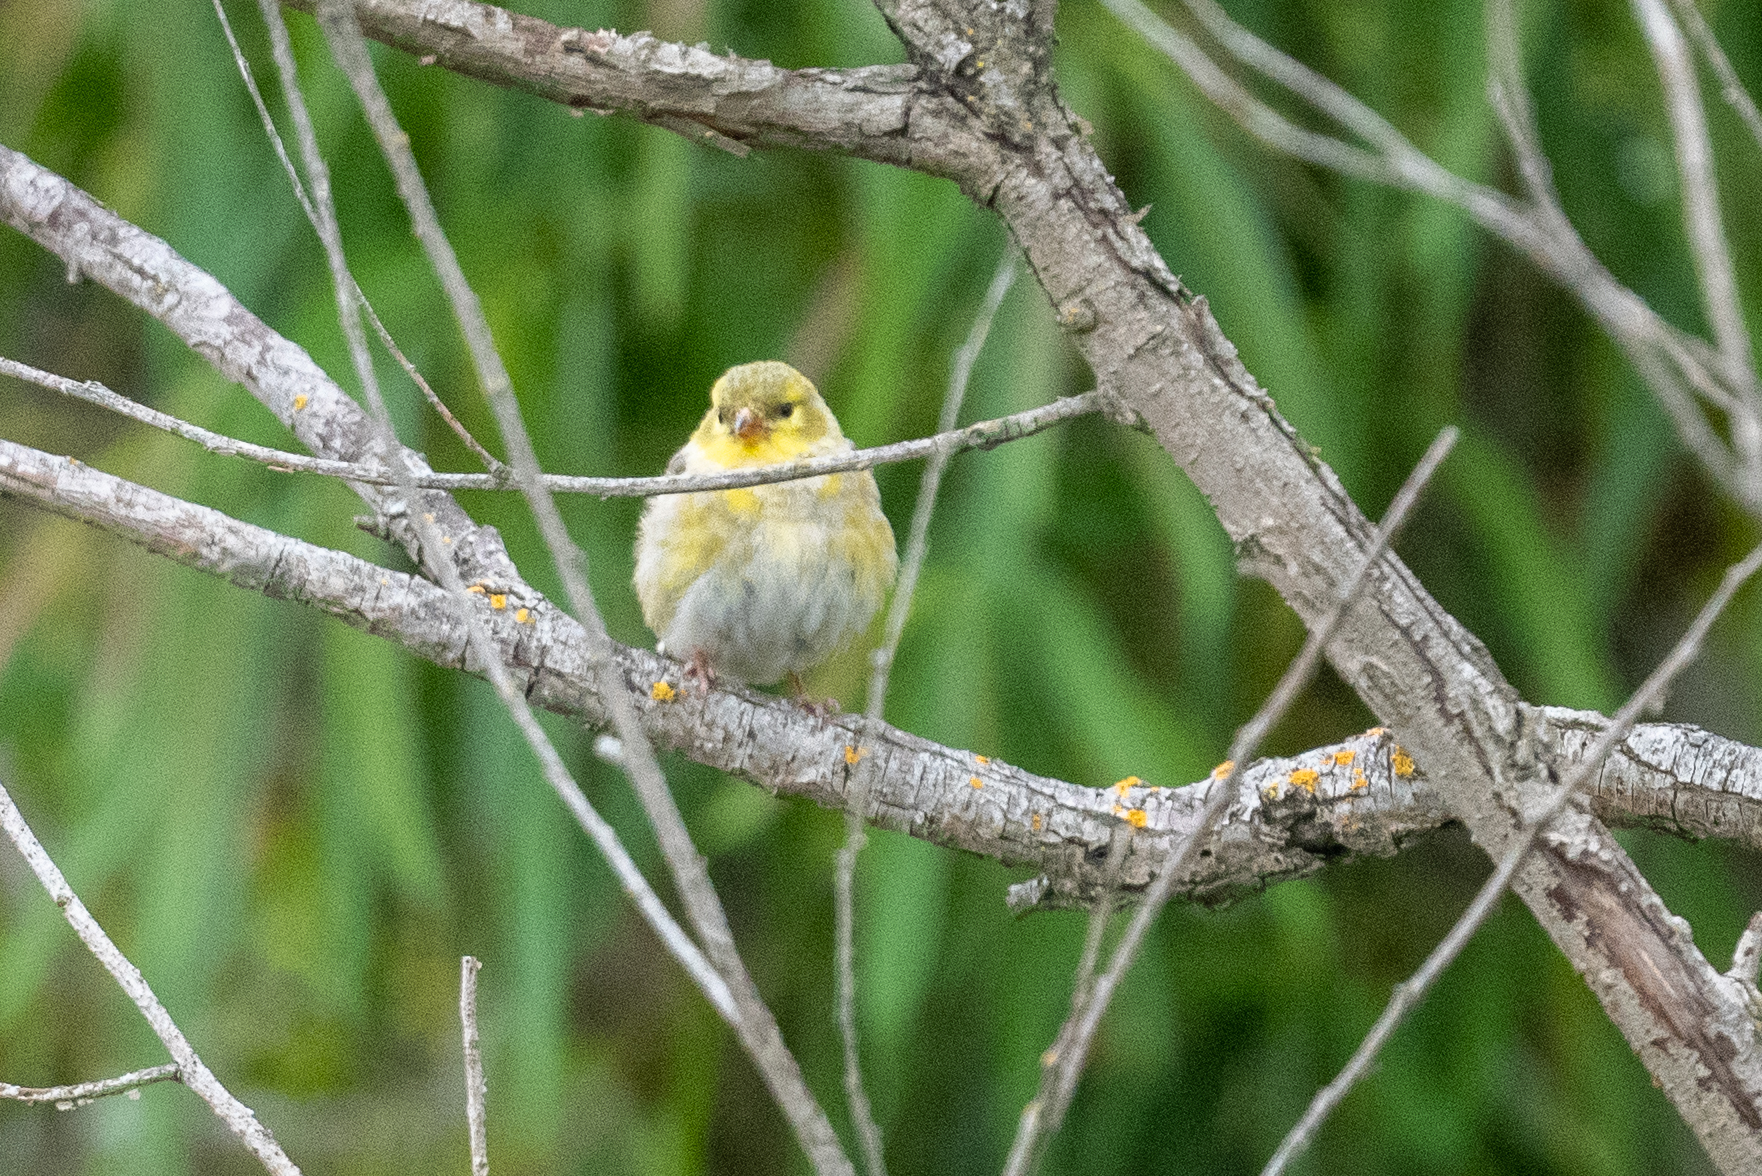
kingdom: Animalia
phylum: Chordata
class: Aves
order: Passeriformes
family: Fringillidae
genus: Spinus
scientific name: Spinus tristis
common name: American goldfinch
